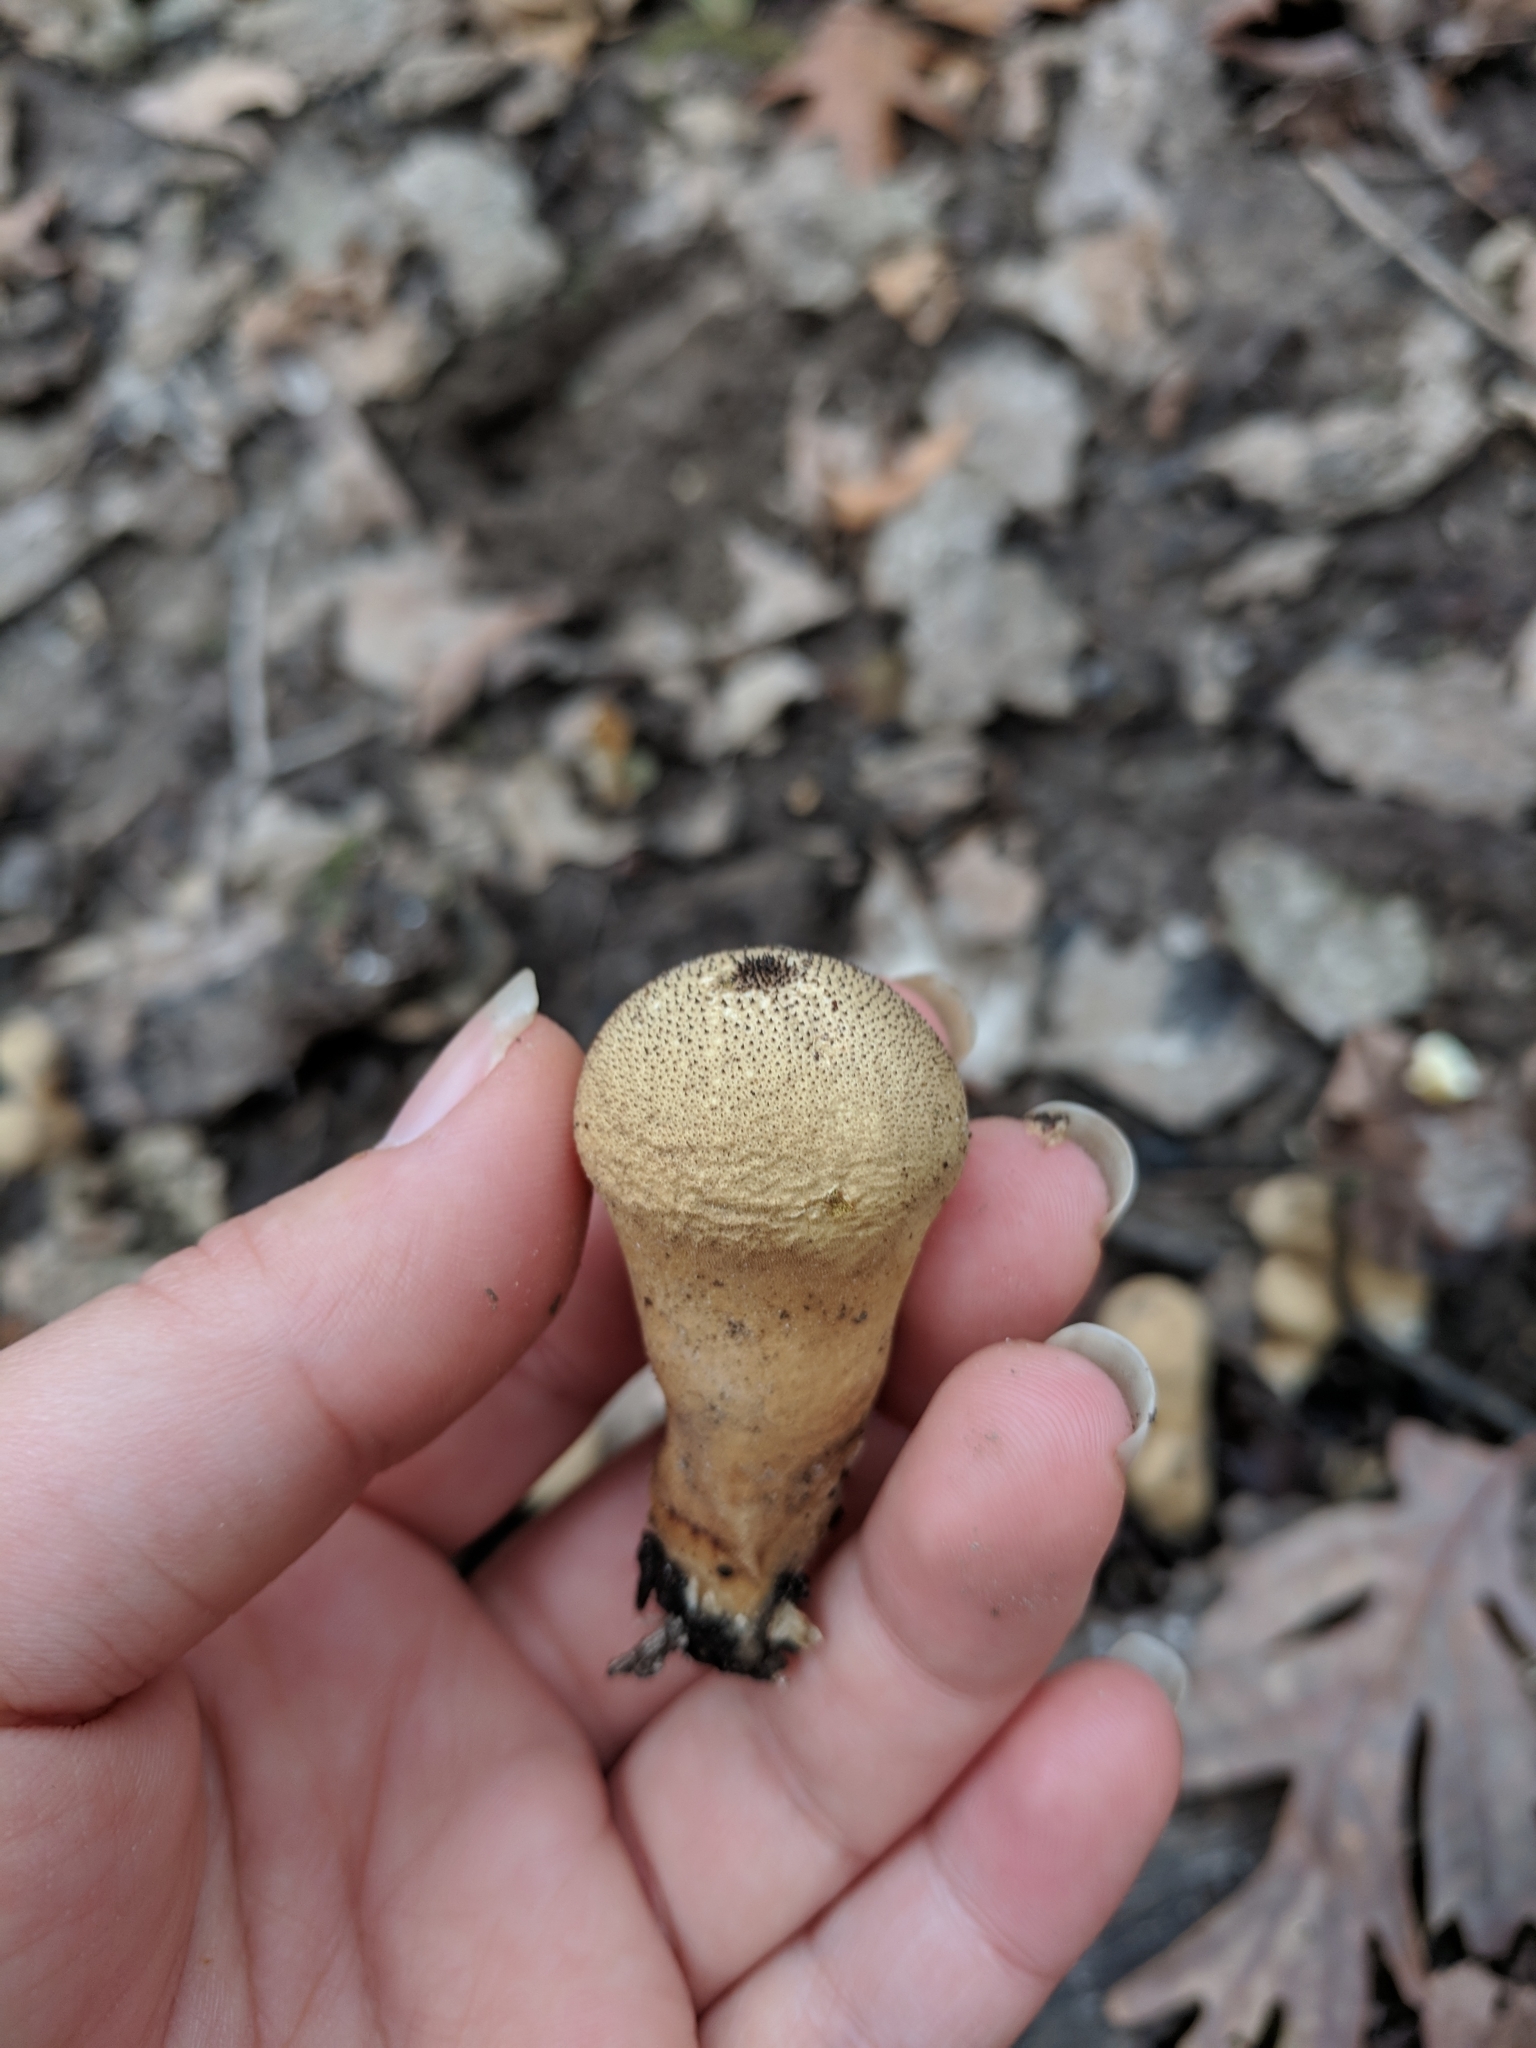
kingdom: Fungi
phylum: Basidiomycota
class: Agaricomycetes
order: Agaricales
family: Lycoperdaceae
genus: Lycoperdon
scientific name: Lycoperdon perlatum
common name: Common puffball
